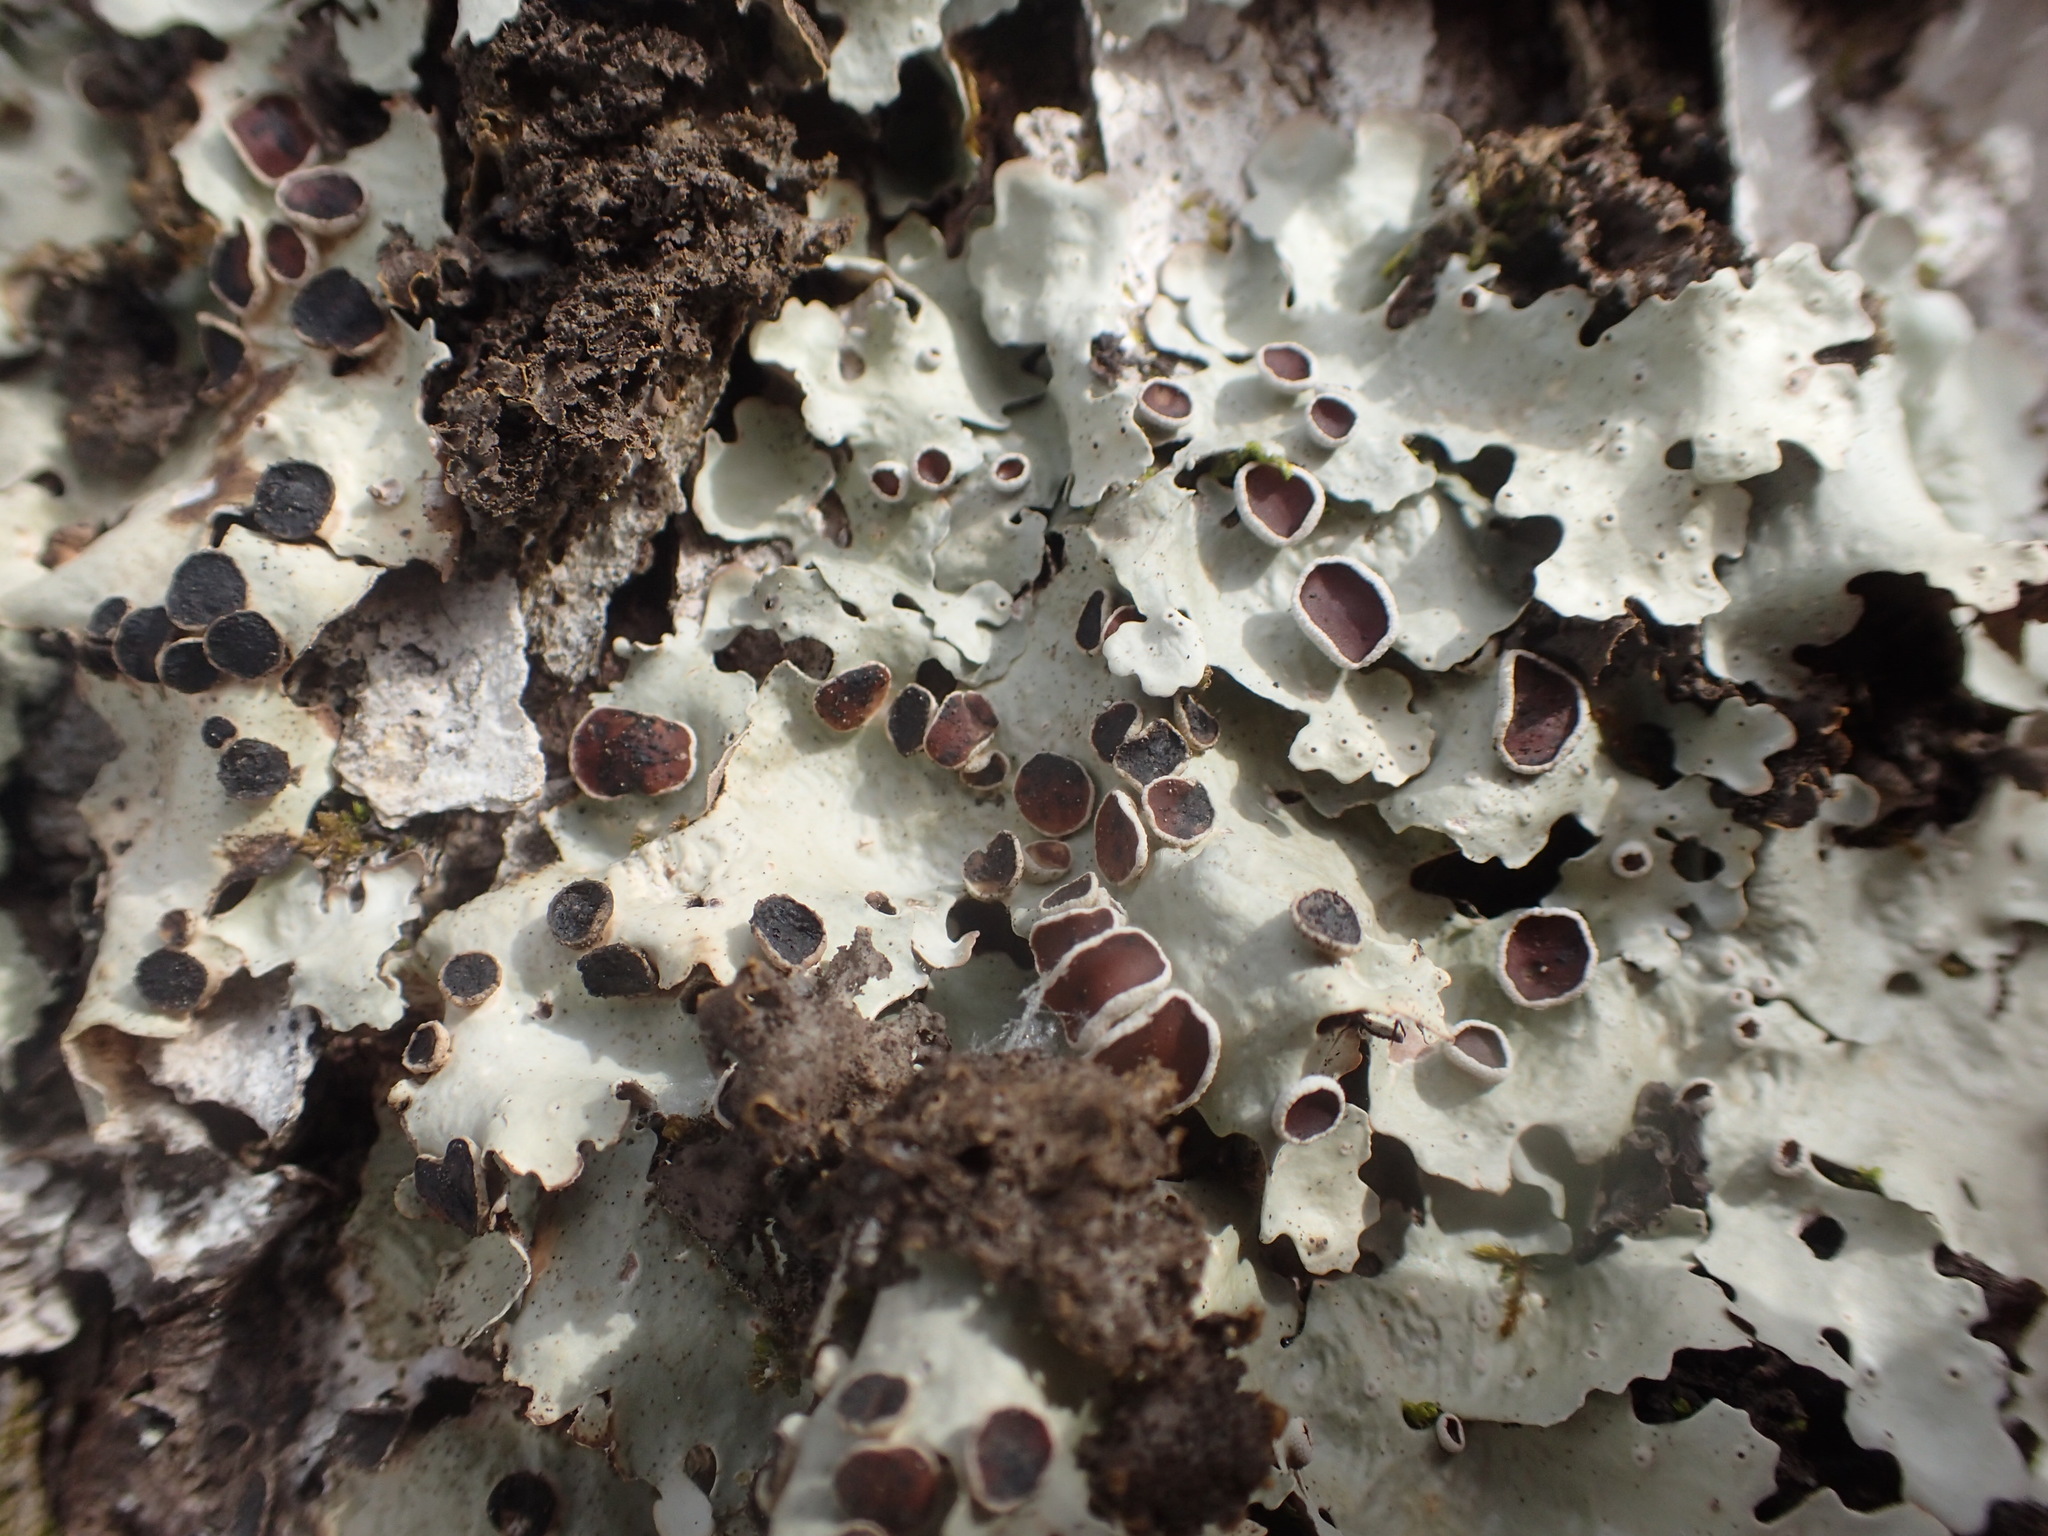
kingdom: Fungi
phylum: Ascomycota
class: Lecanoromycetes
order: Peltigerales
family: Lobariaceae
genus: Ricasolia
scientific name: Ricasolia quercizans
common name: Smooth lungwort
